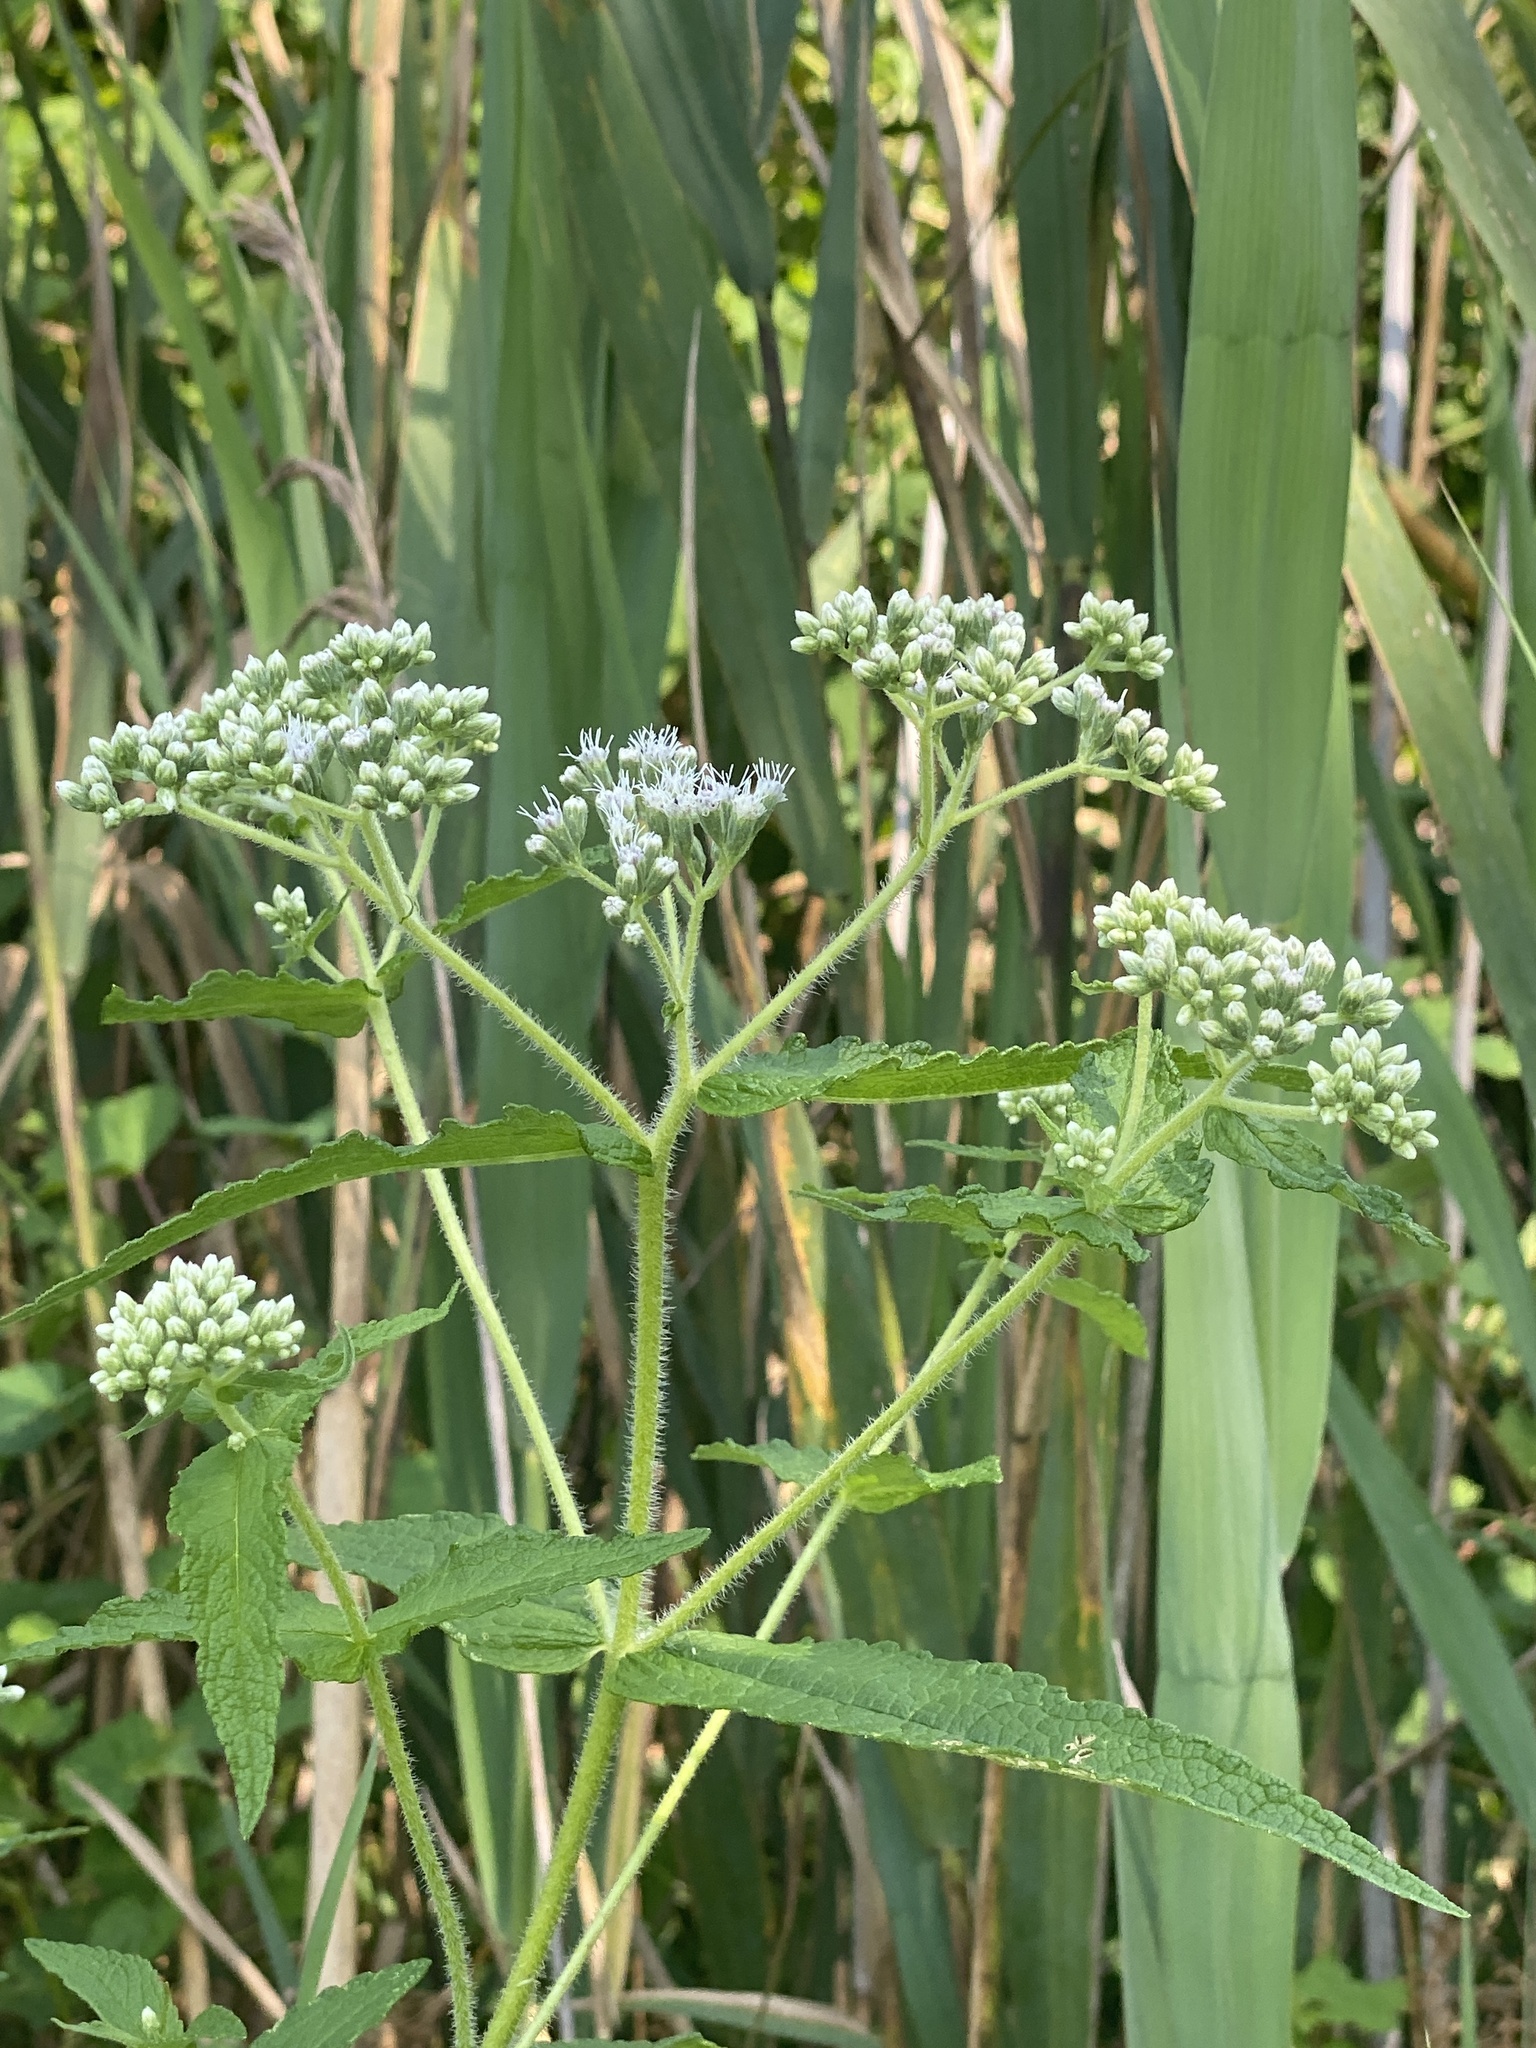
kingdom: Plantae
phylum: Tracheophyta
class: Magnoliopsida
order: Asterales
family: Asteraceae
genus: Eupatorium
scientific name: Eupatorium perfoliatum
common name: Boneset
